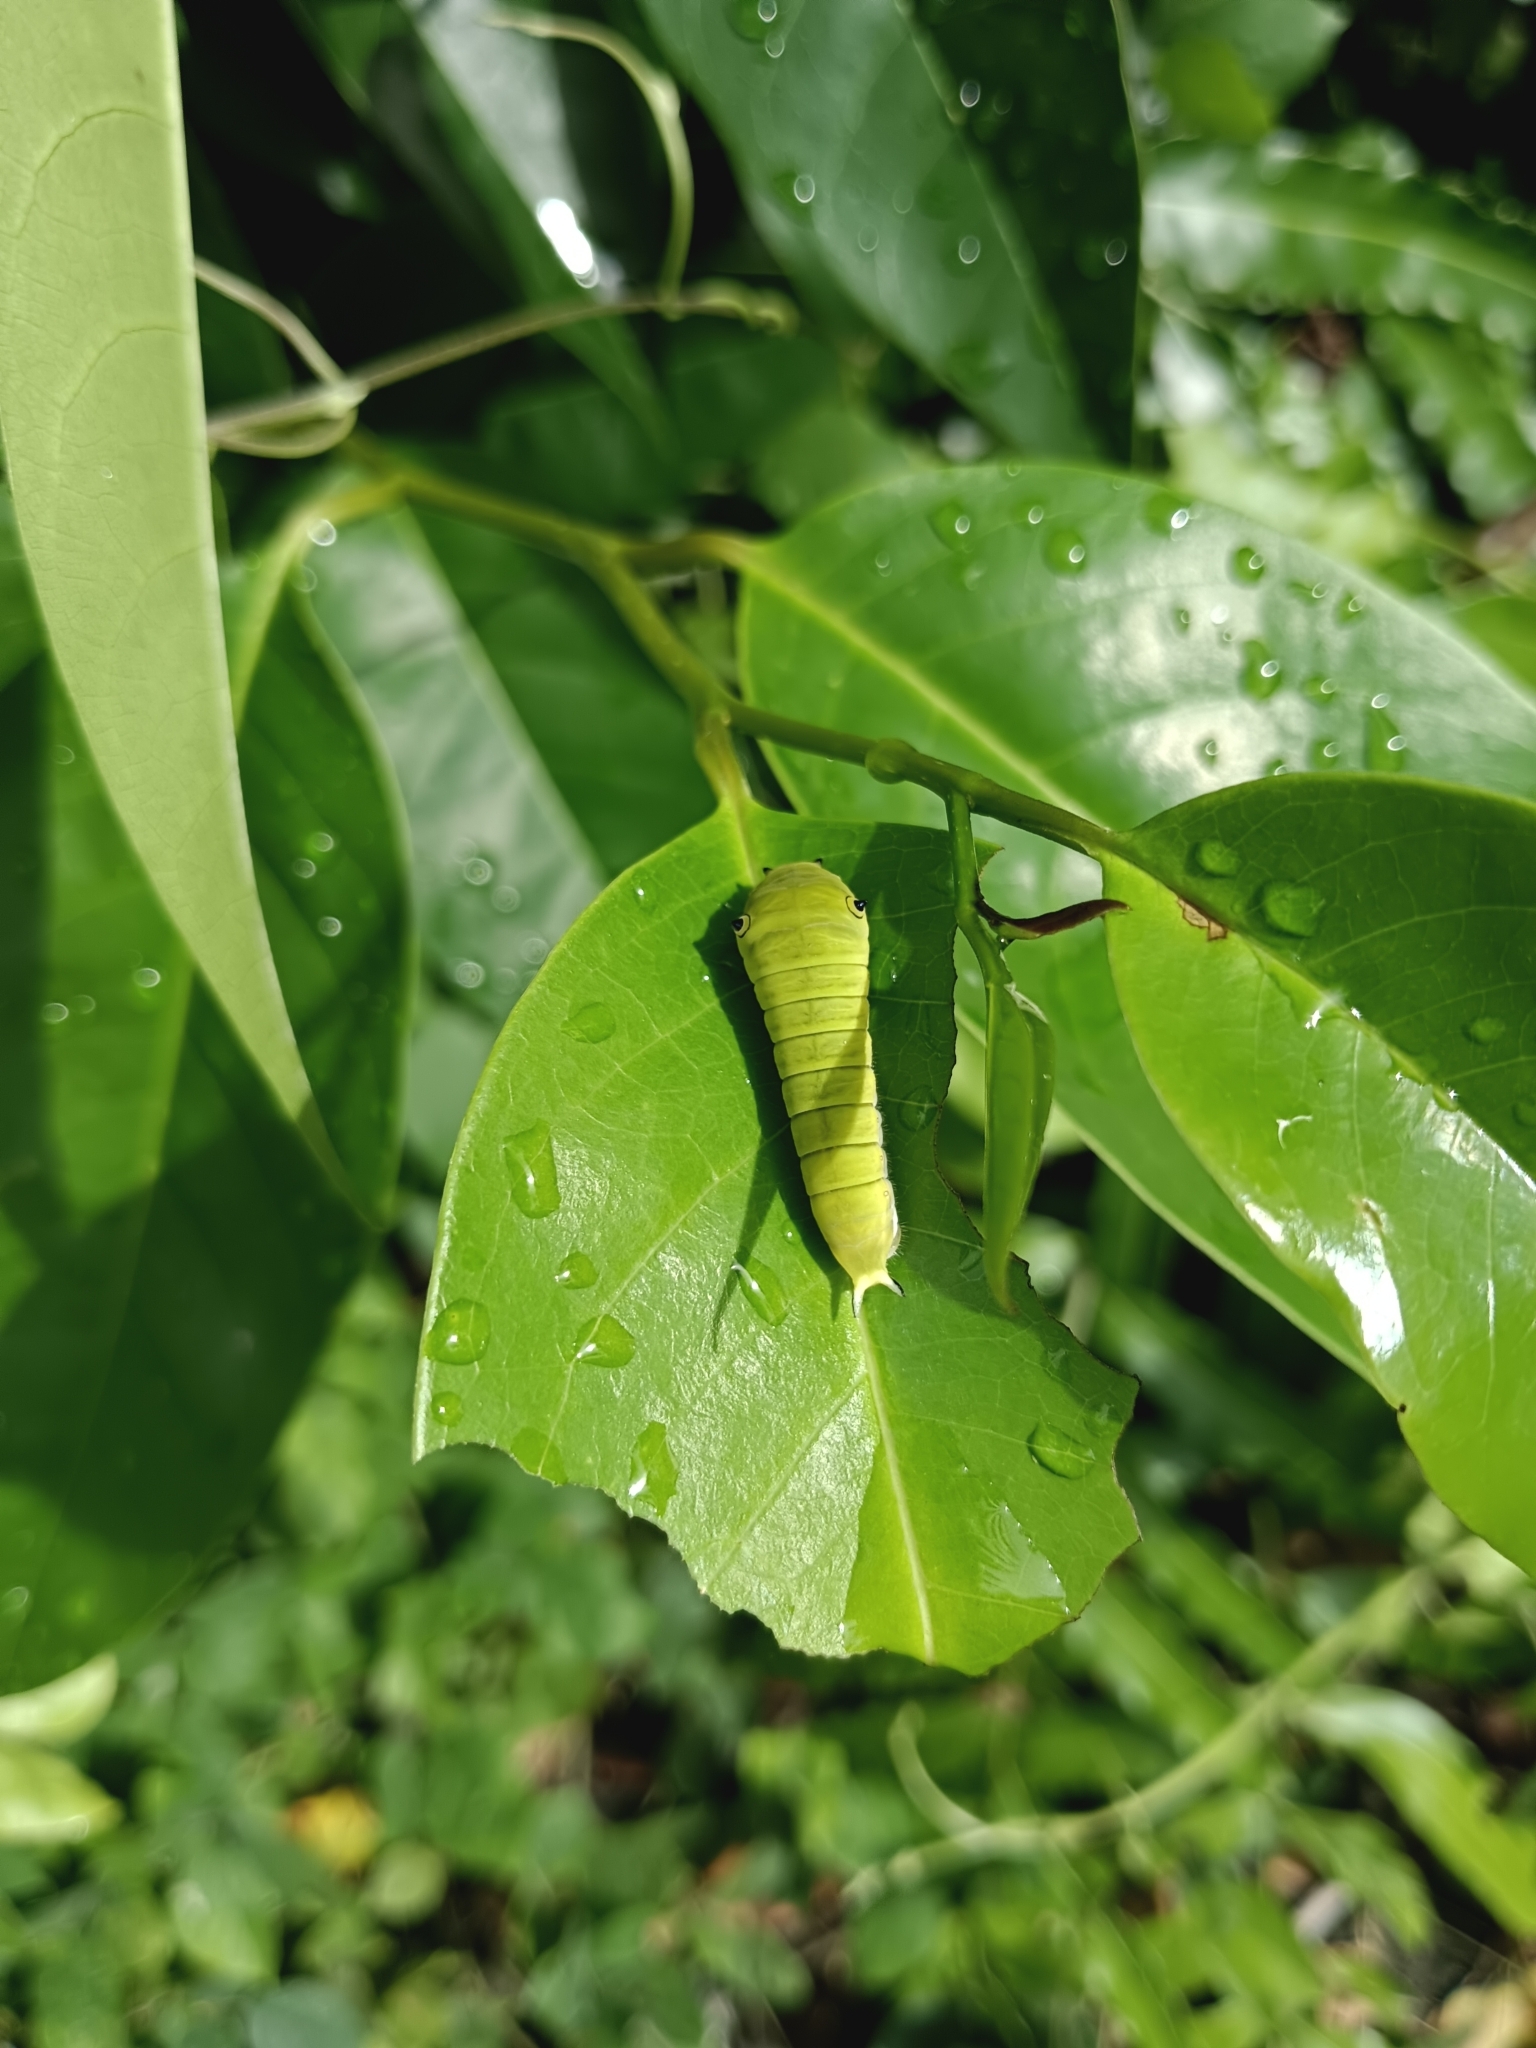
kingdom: Animalia
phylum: Arthropoda
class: Insecta
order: Lepidoptera
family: Papilionidae
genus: Graphium
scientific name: Graphium doson
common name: Common jay
